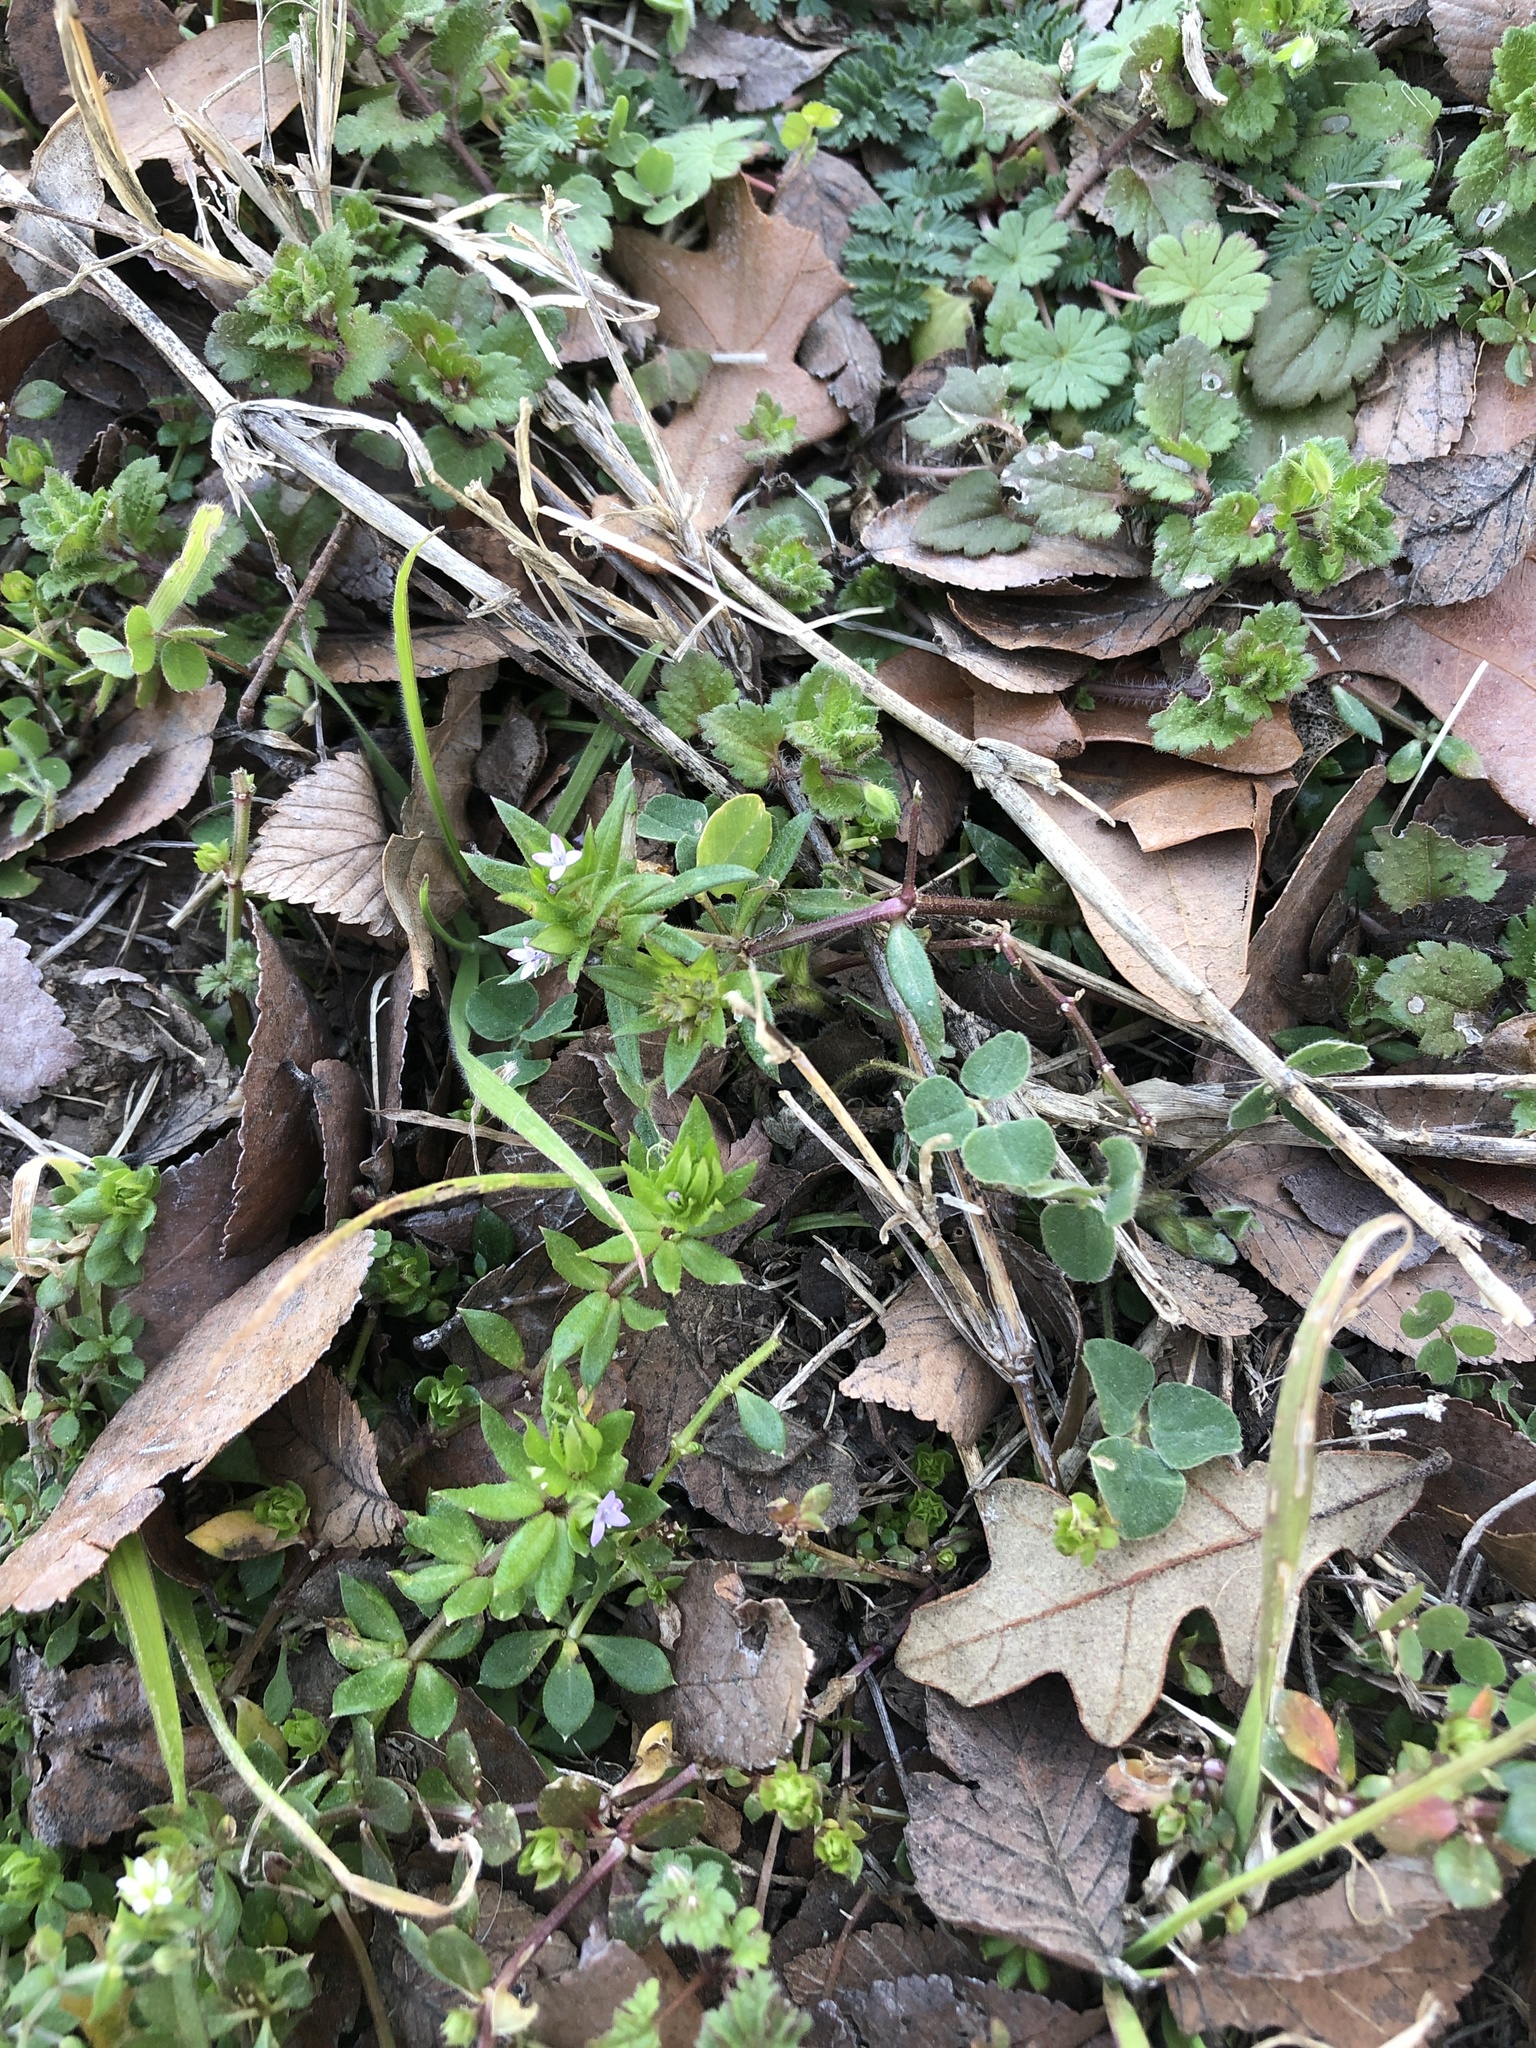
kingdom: Plantae
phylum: Tracheophyta
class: Magnoliopsida
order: Gentianales
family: Rubiaceae
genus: Sherardia
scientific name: Sherardia arvensis
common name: Field madder
